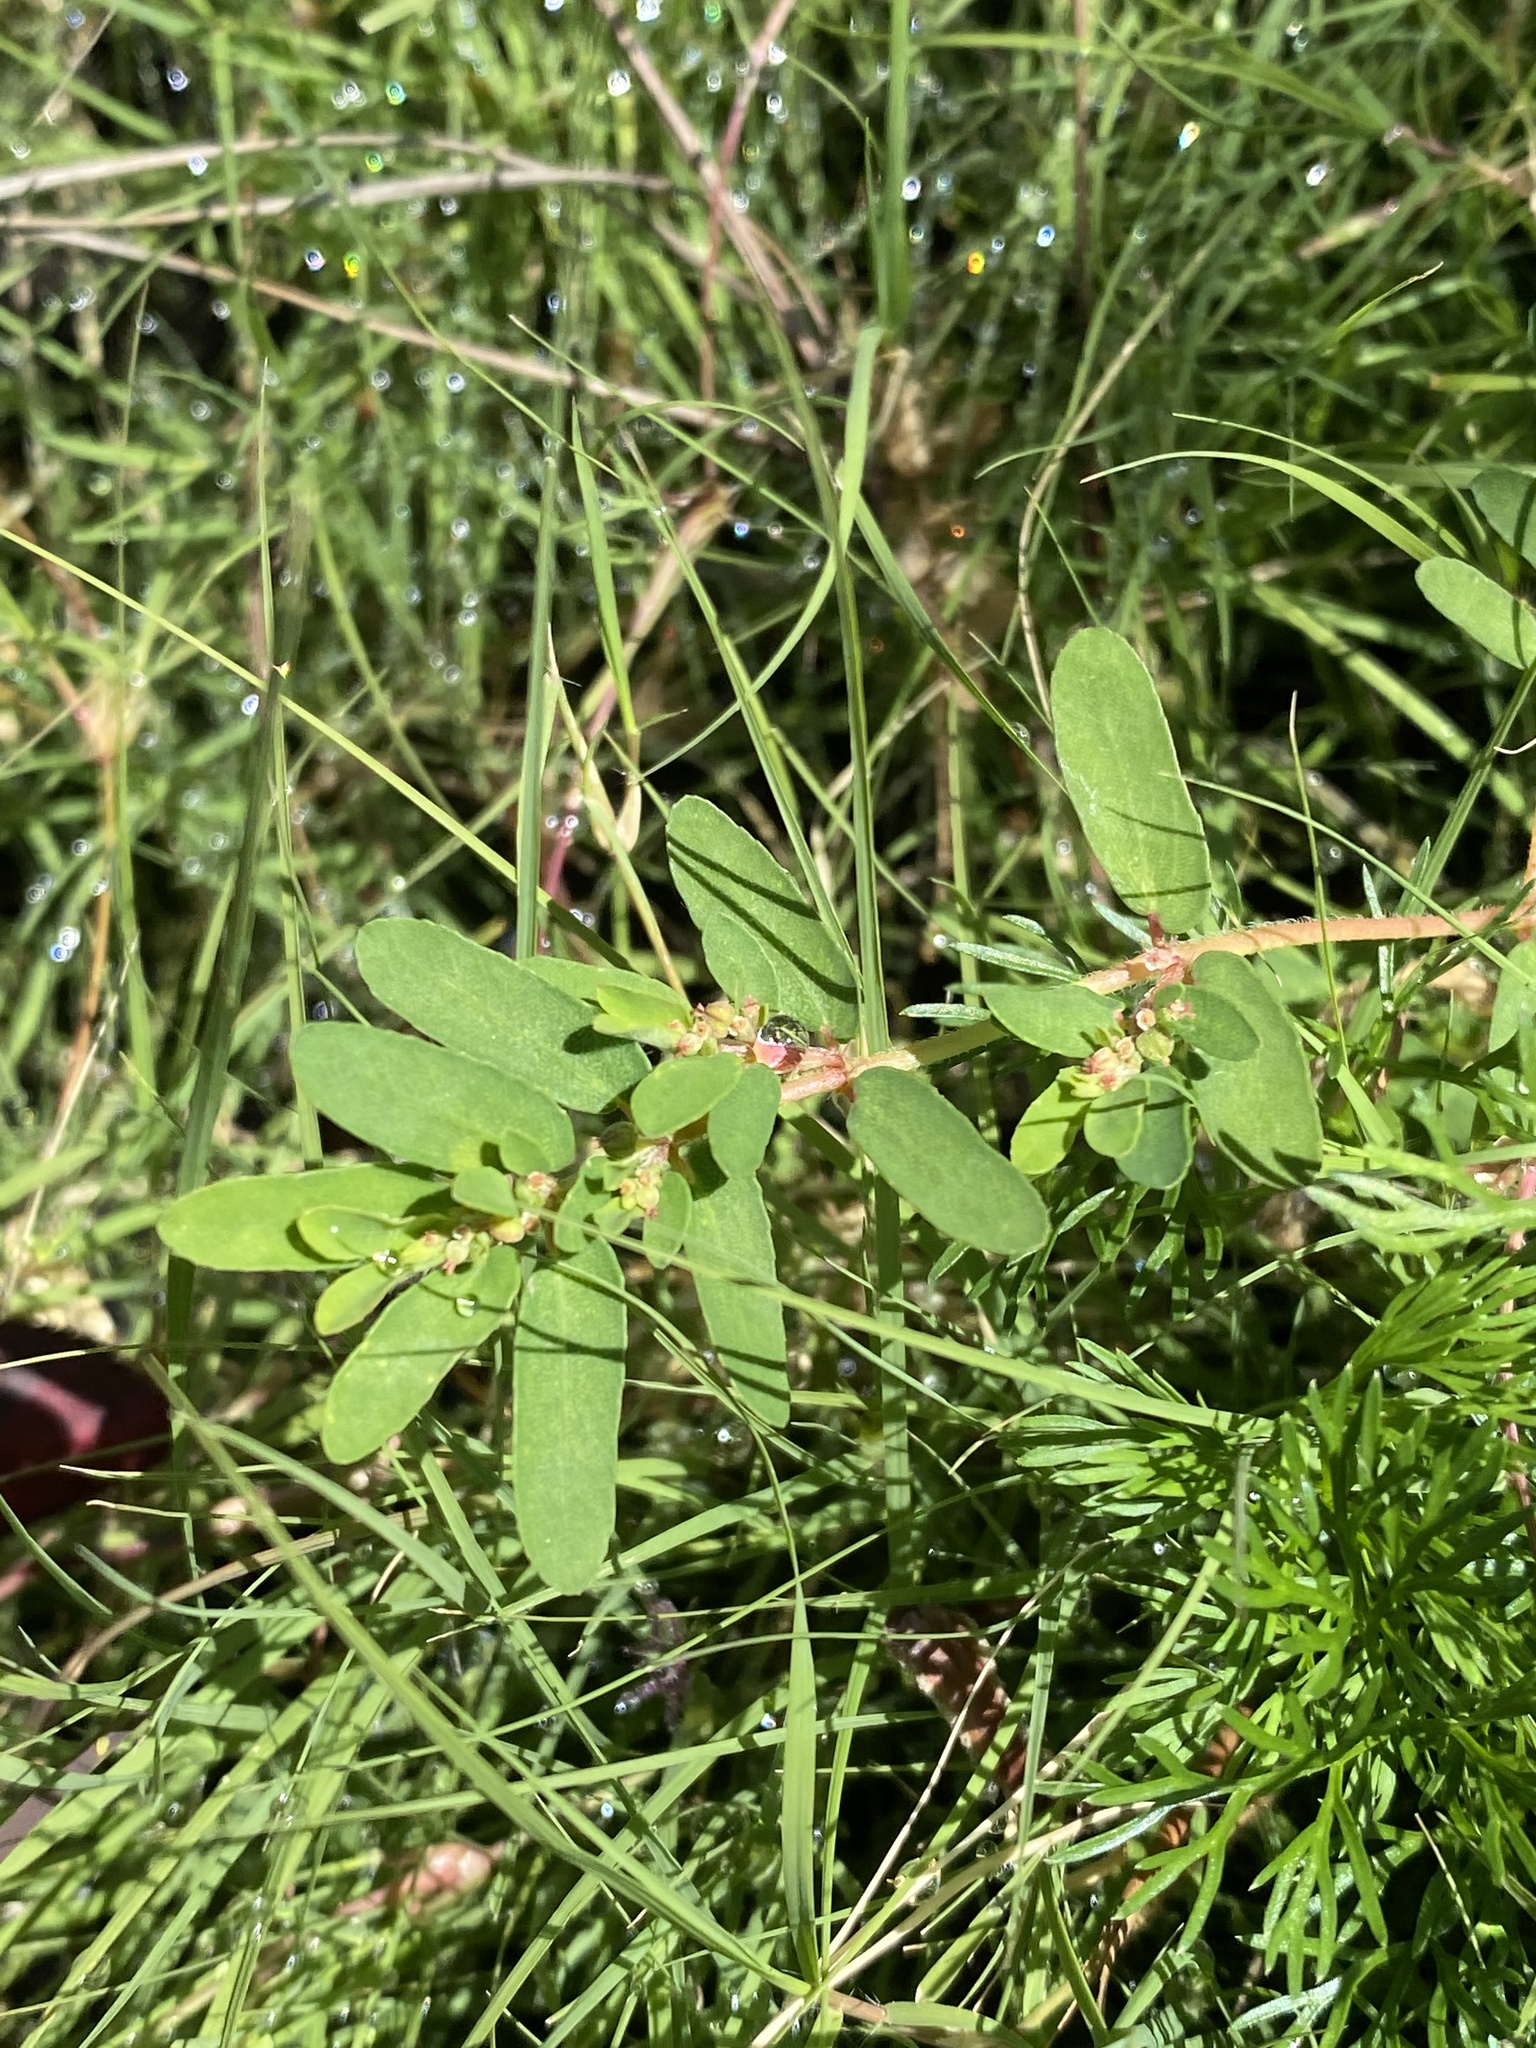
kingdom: Plantae
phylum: Tracheophyta
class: Magnoliopsida
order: Malpighiales
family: Euphorbiaceae
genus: Euphorbia
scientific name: Euphorbia maculata
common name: Spotted spurge
